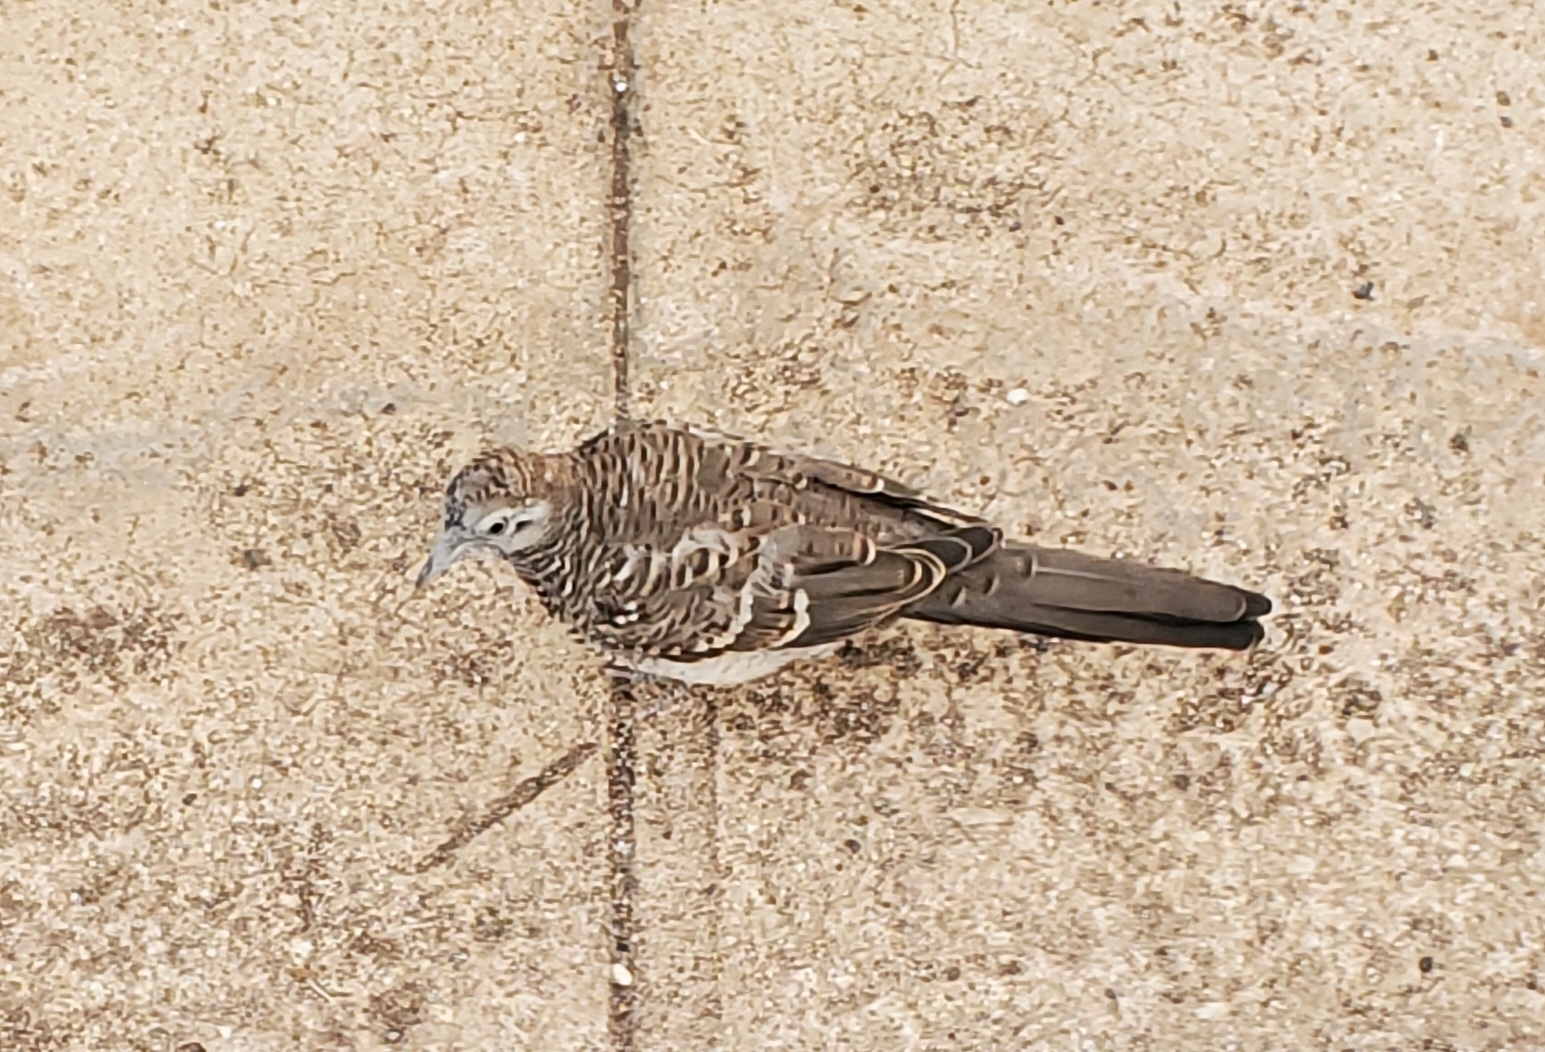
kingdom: Animalia
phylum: Chordata
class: Aves
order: Columbiformes
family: Columbidae
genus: Geopelia
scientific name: Geopelia striata
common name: Zebra dove
